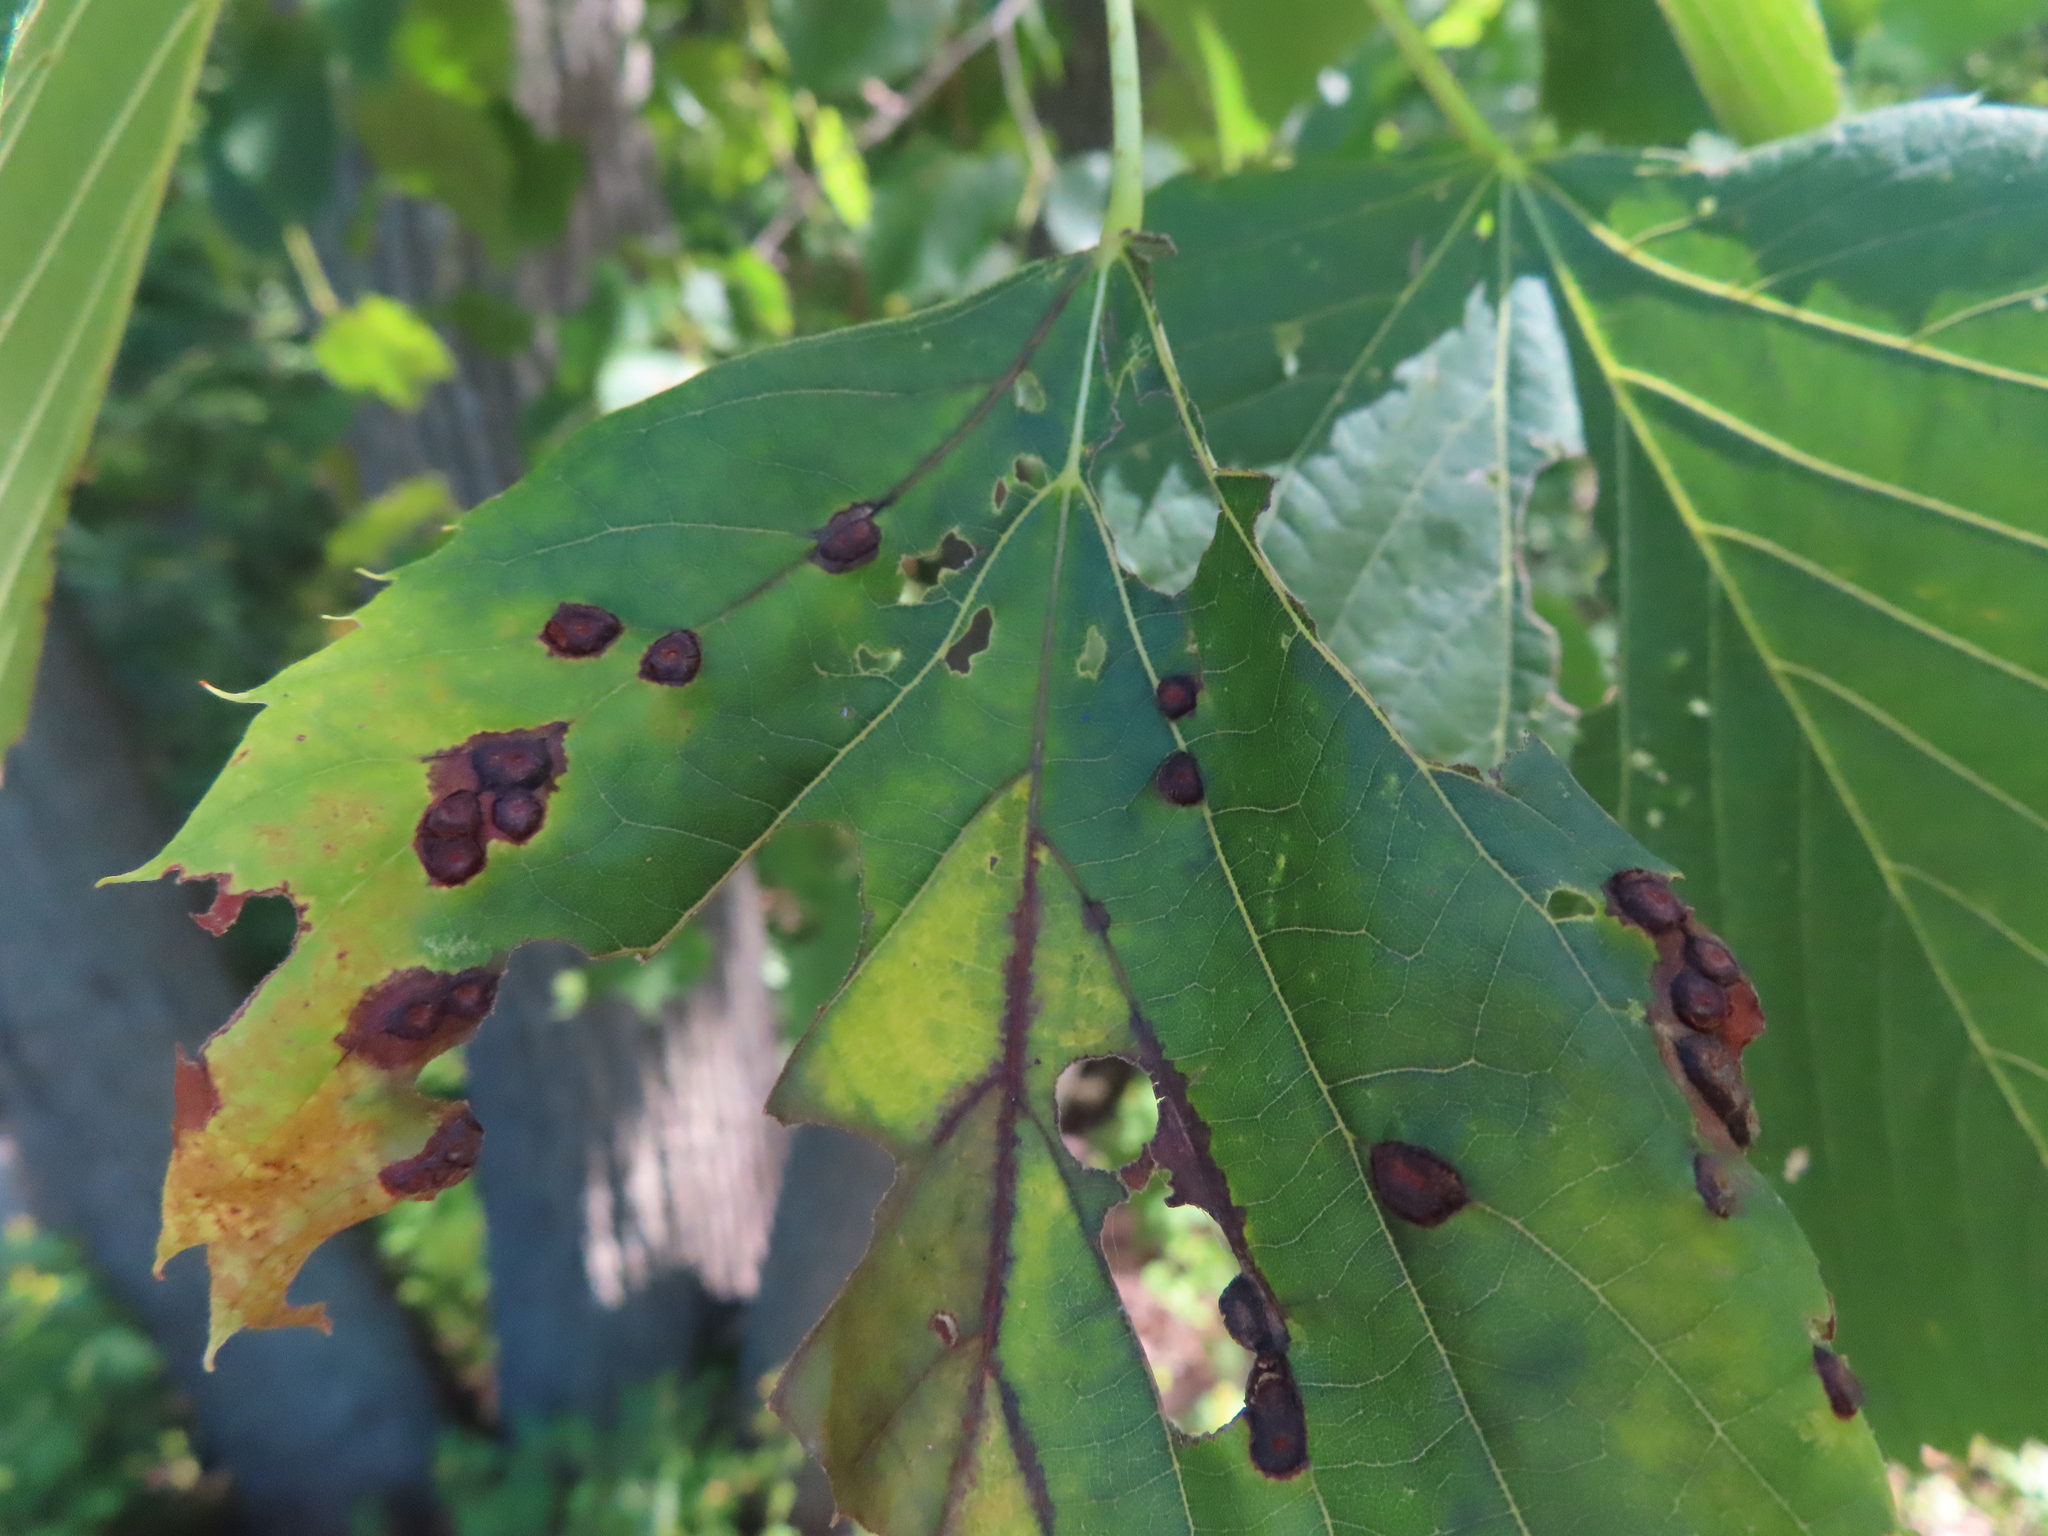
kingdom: Animalia
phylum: Arthropoda
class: Insecta
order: Diptera
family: Cecidomyiidae
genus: Contarinia
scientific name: Contarinia verrucicola
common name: Linden wart gall midge
